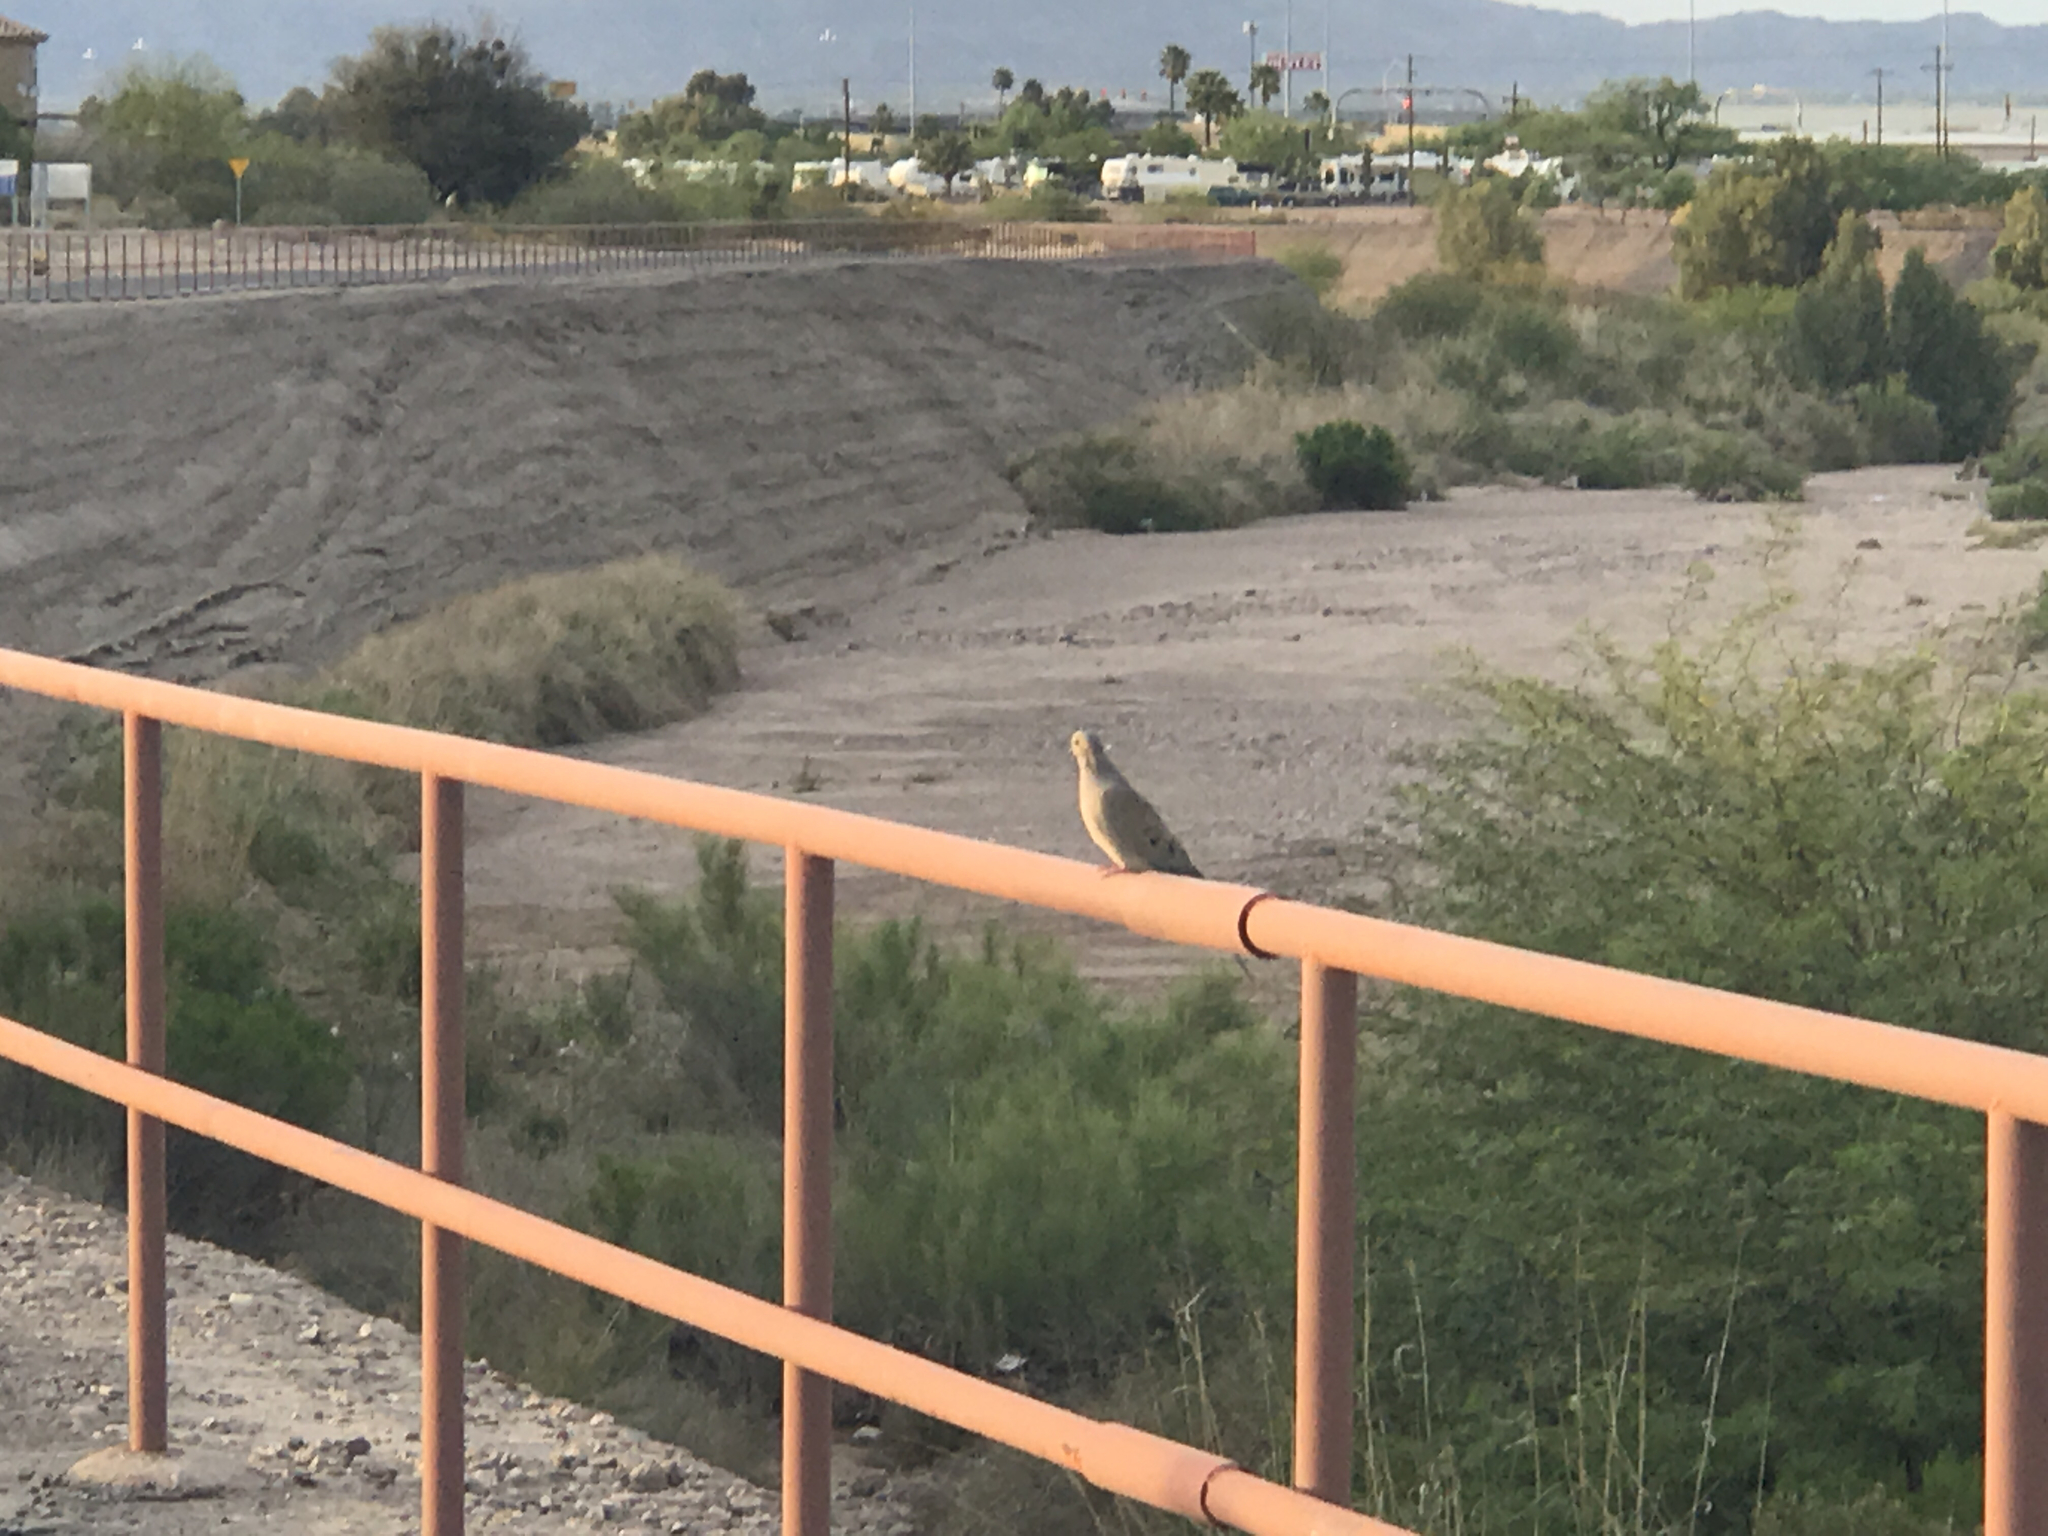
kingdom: Animalia
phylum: Chordata
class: Aves
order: Columbiformes
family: Columbidae
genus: Zenaida
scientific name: Zenaida macroura
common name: Mourning dove
